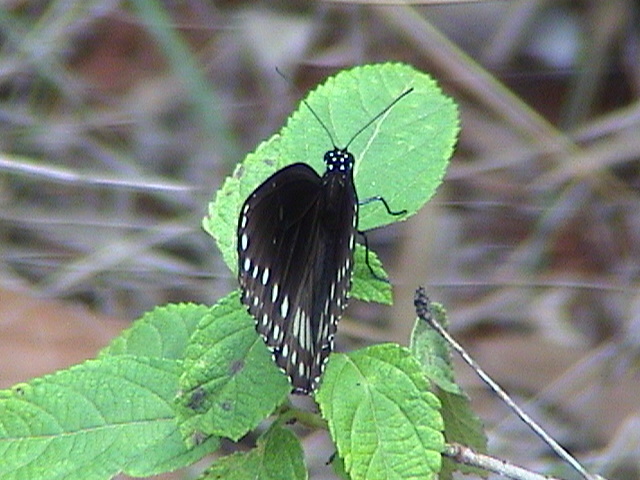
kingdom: Animalia
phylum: Arthropoda
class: Insecta
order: Lepidoptera
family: Nymphalidae
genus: Euploea
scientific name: Euploea core
